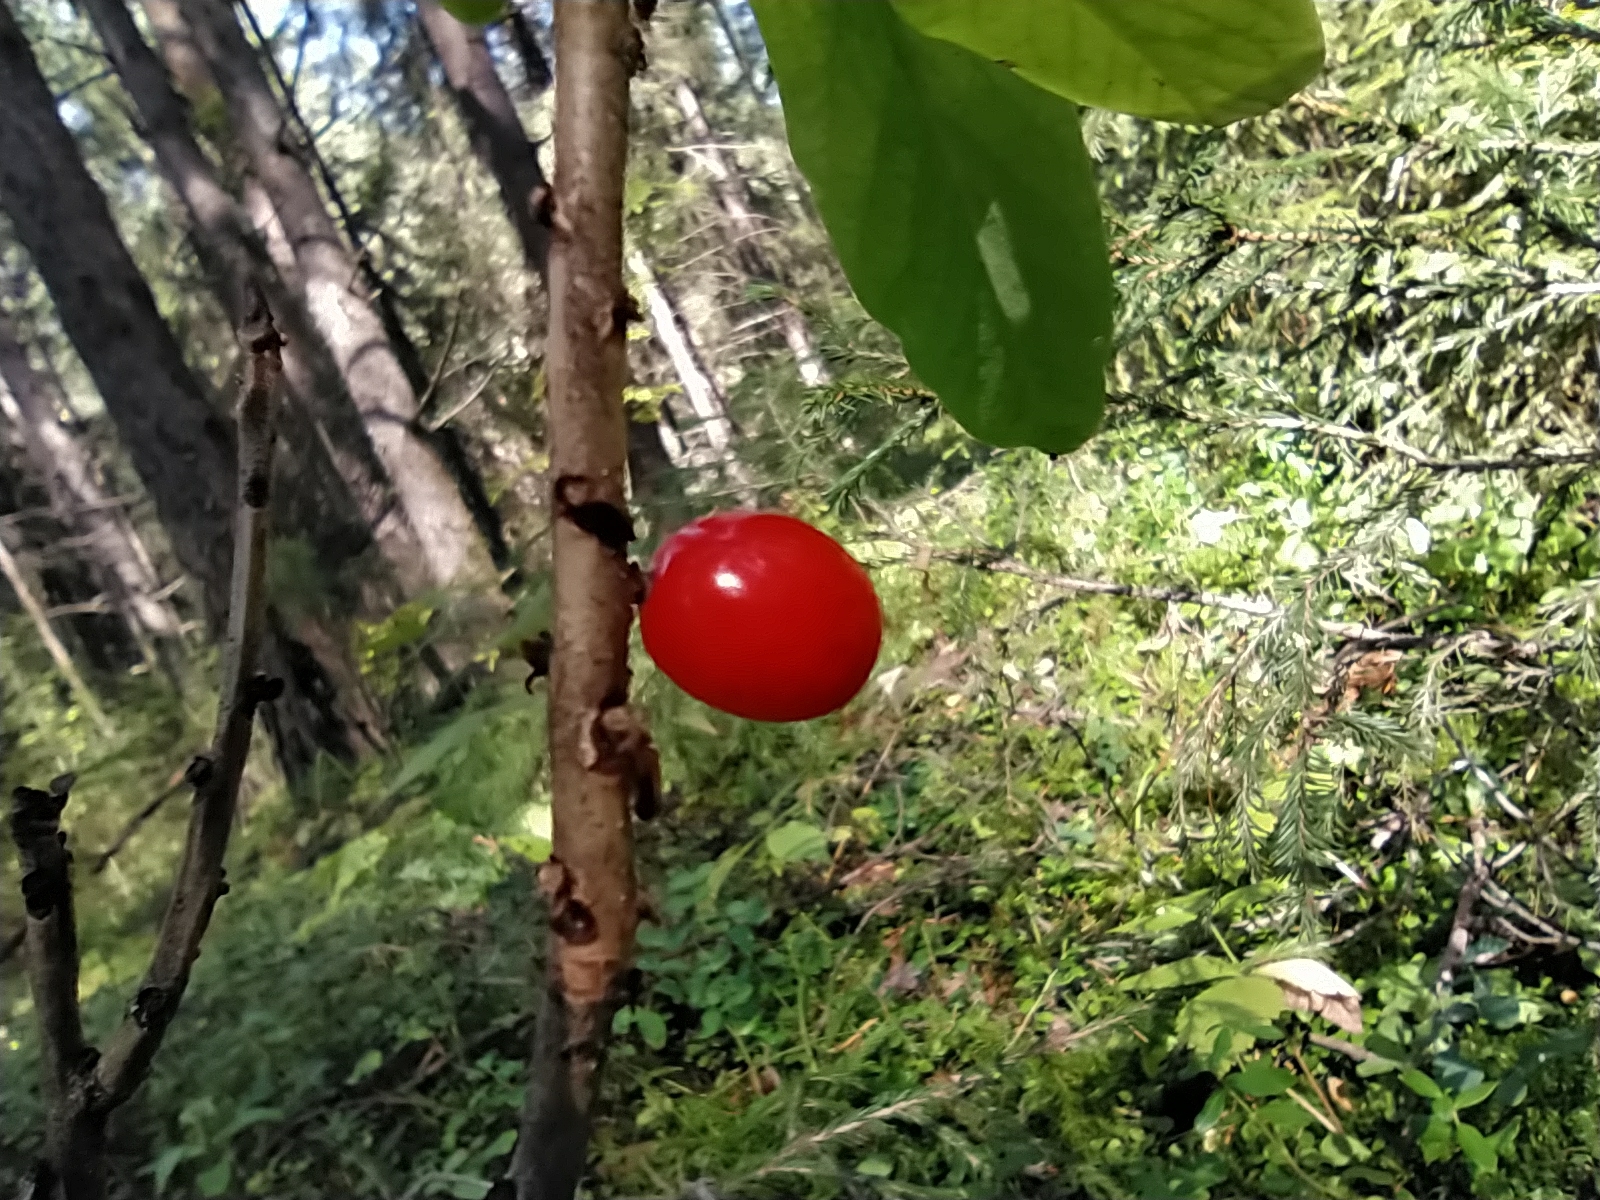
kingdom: Plantae
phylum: Tracheophyta
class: Magnoliopsida
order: Malvales
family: Thymelaeaceae
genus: Daphne
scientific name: Daphne mezereum
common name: Mezereon
